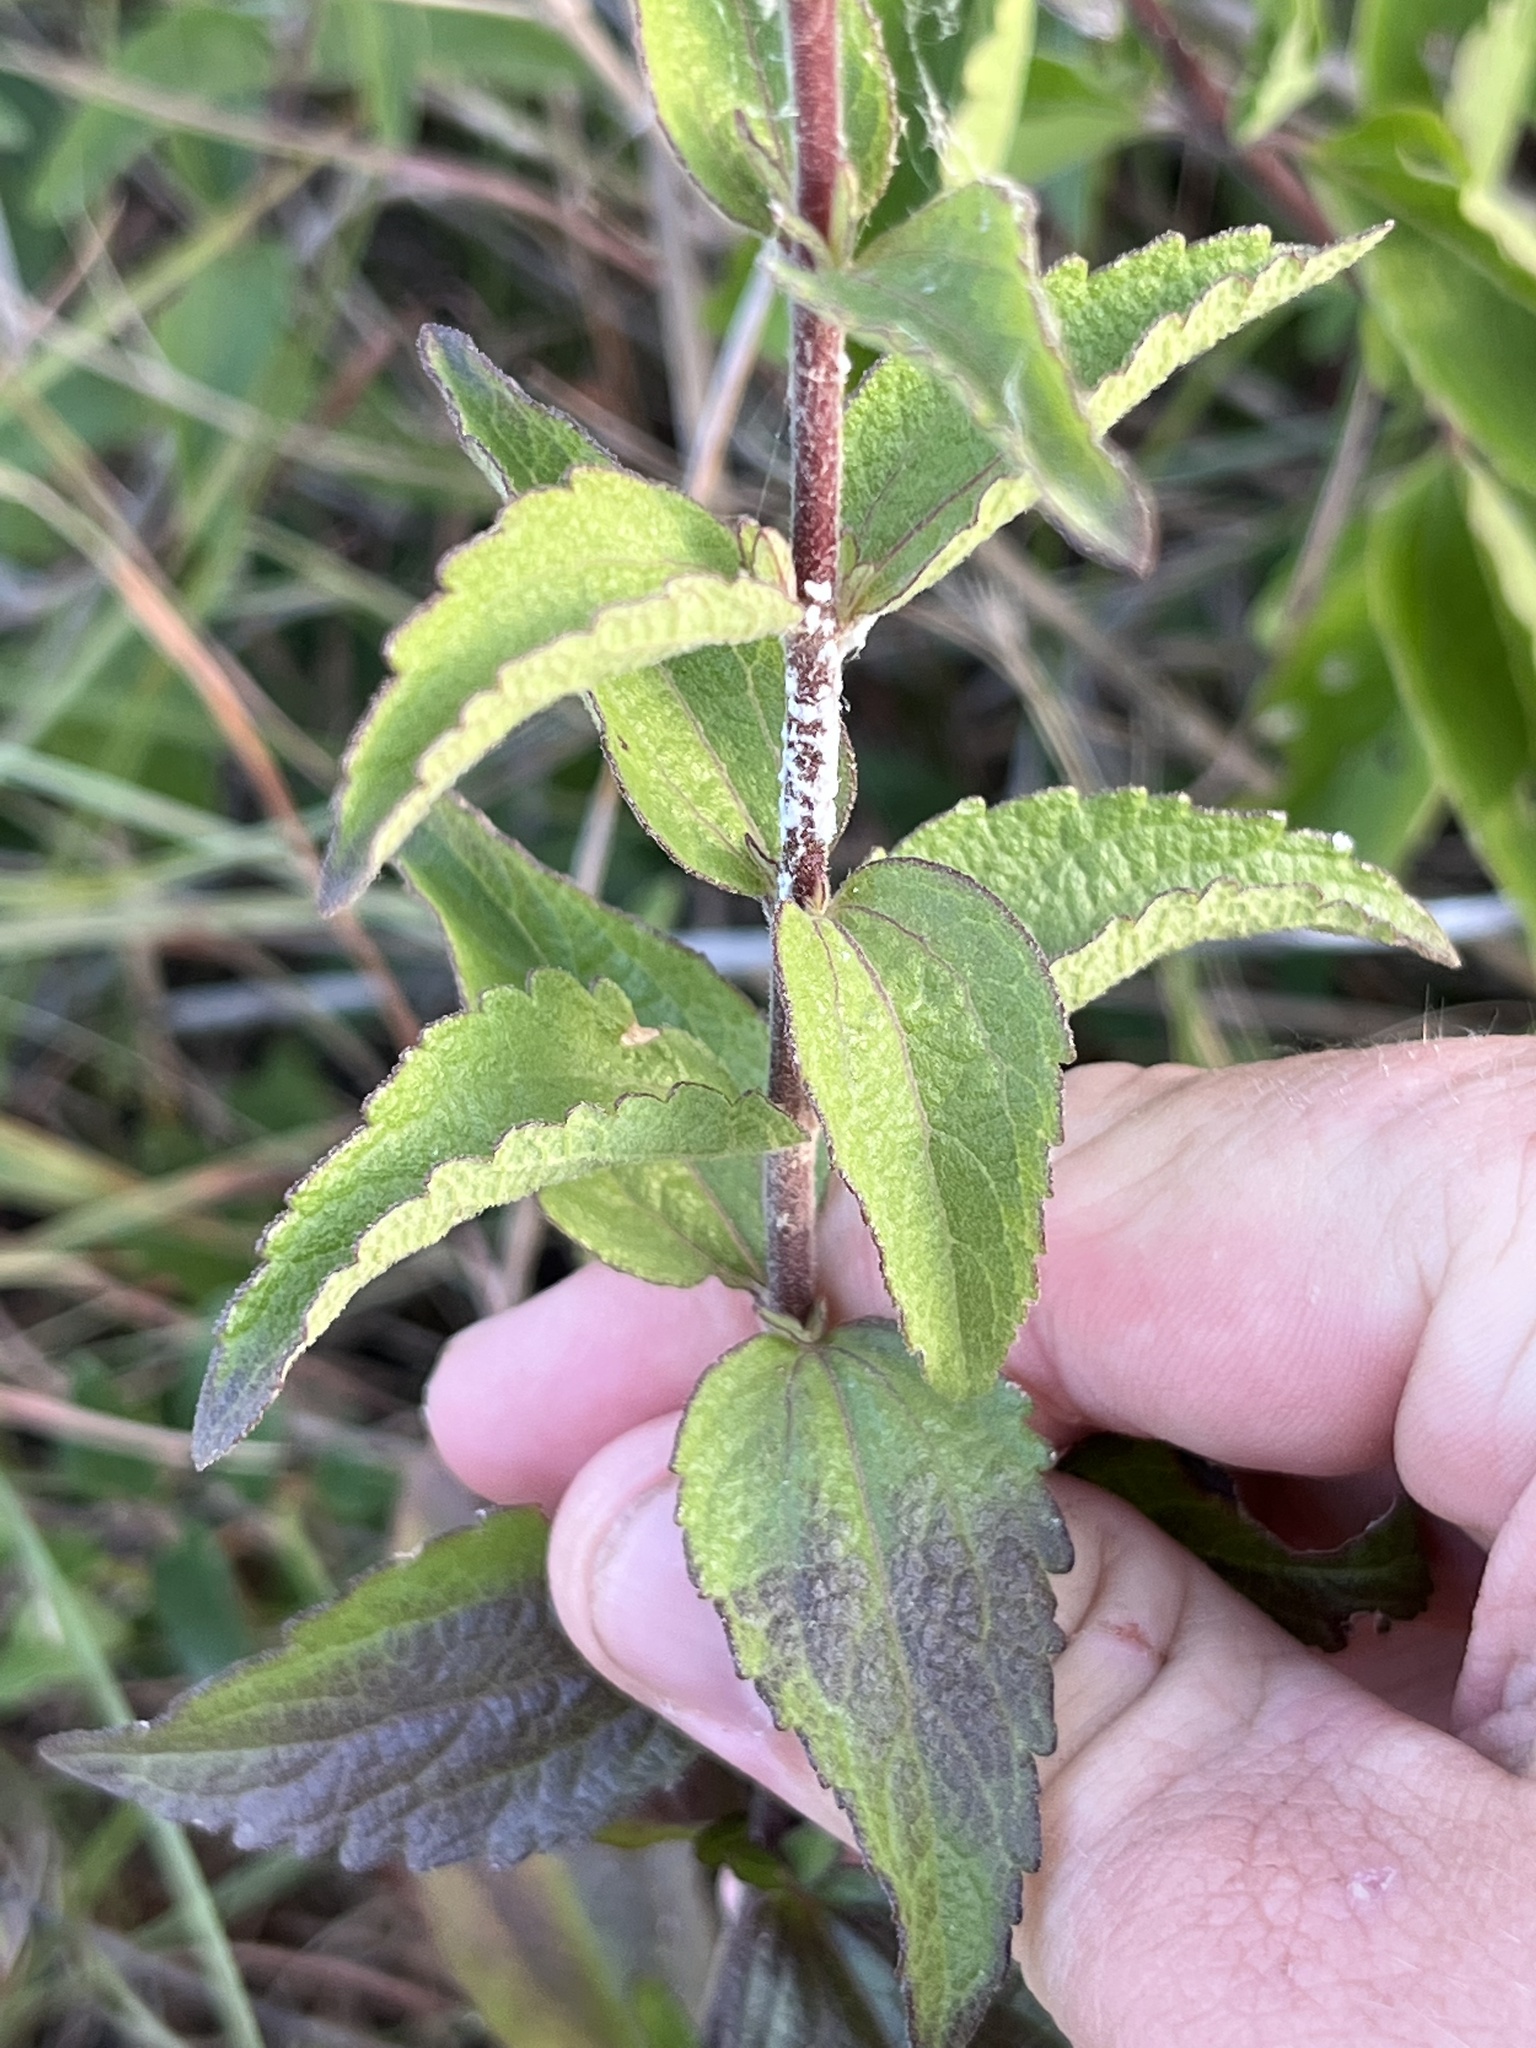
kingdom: Plantae
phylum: Tracheophyta
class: Magnoliopsida
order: Asterales
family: Asteraceae
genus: Brickellia
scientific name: Brickellia cylindracea
